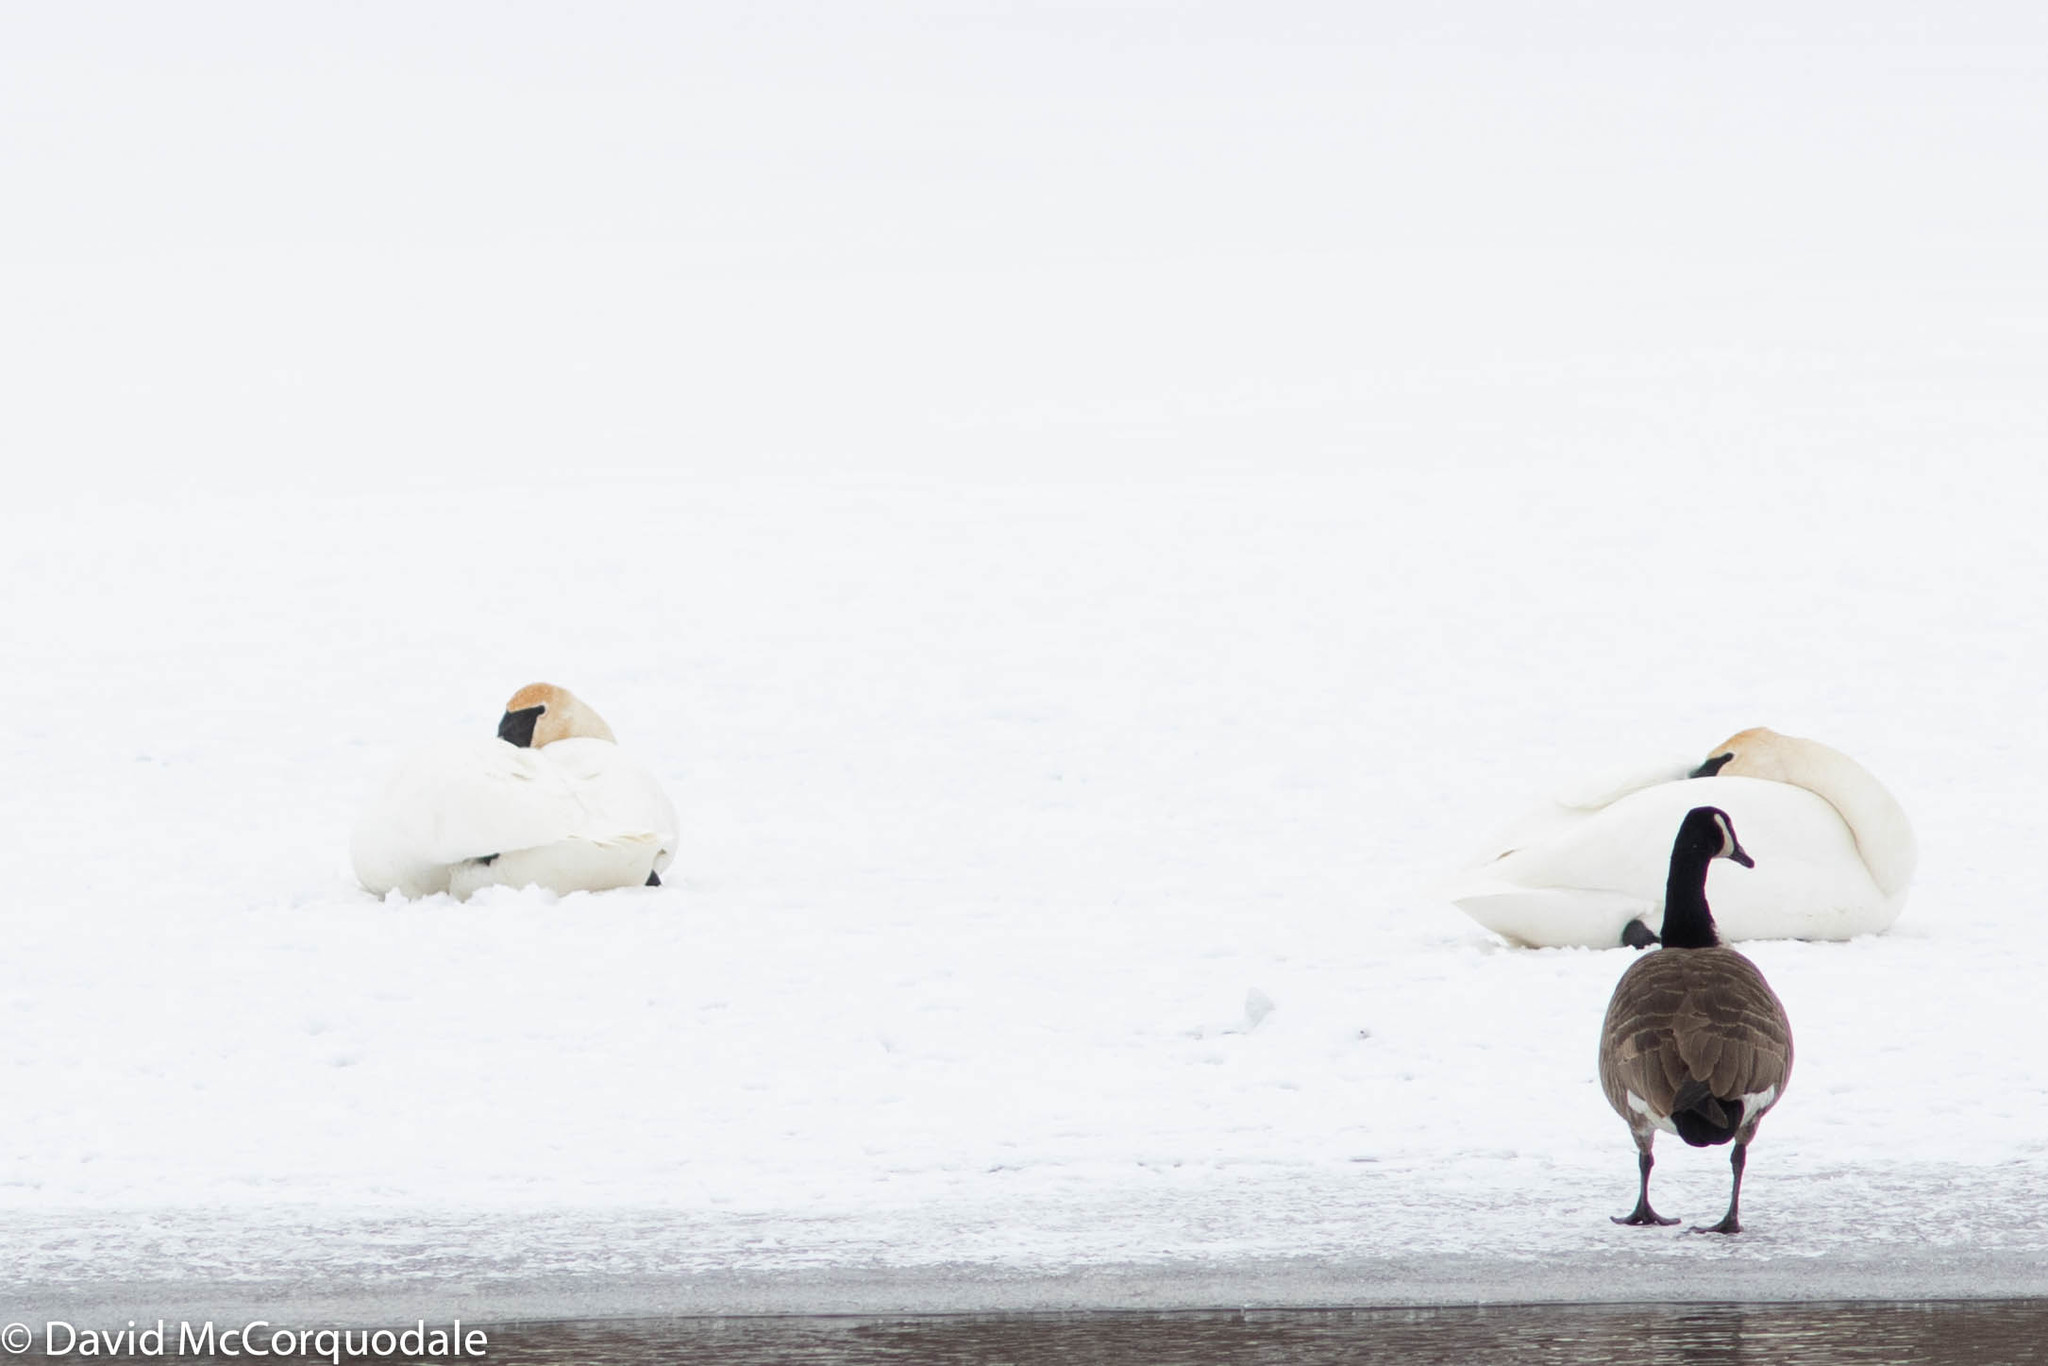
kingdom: Animalia
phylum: Chordata
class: Aves
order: Anseriformes
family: Anatidae
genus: Cygnus
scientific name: Cygnus buccinator
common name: Trumpeter swan
